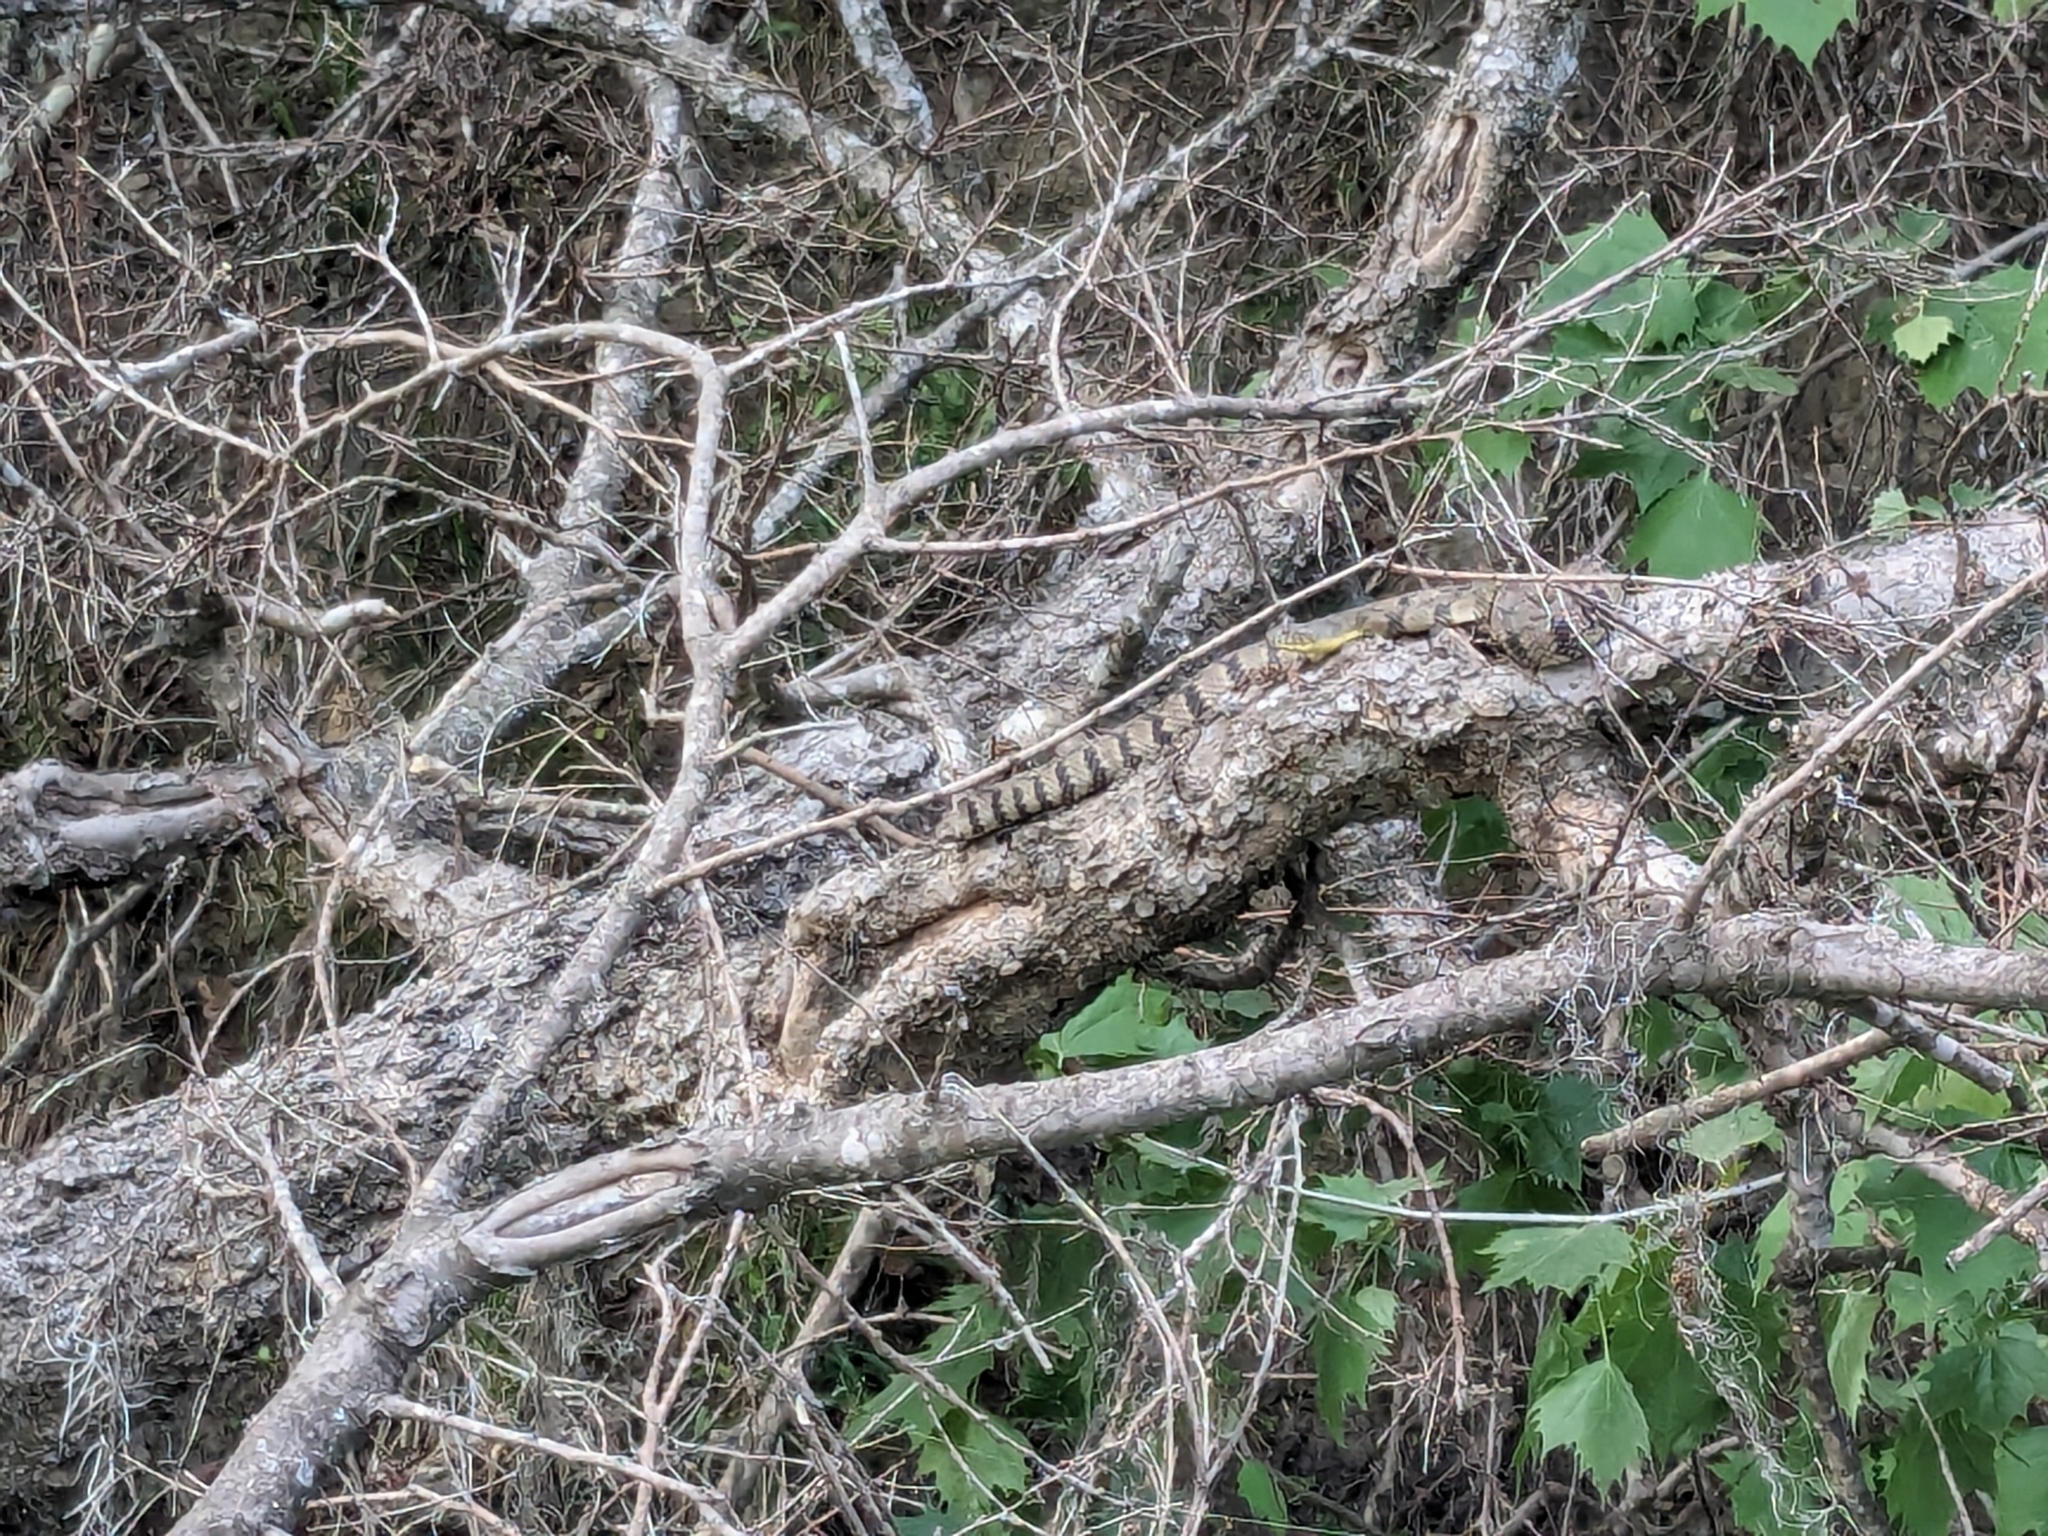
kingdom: Animalia
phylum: Chordata
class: Squamata
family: Colubridae
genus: Nerodia
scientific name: Nerodia rhombifer
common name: Diamondback water snake
